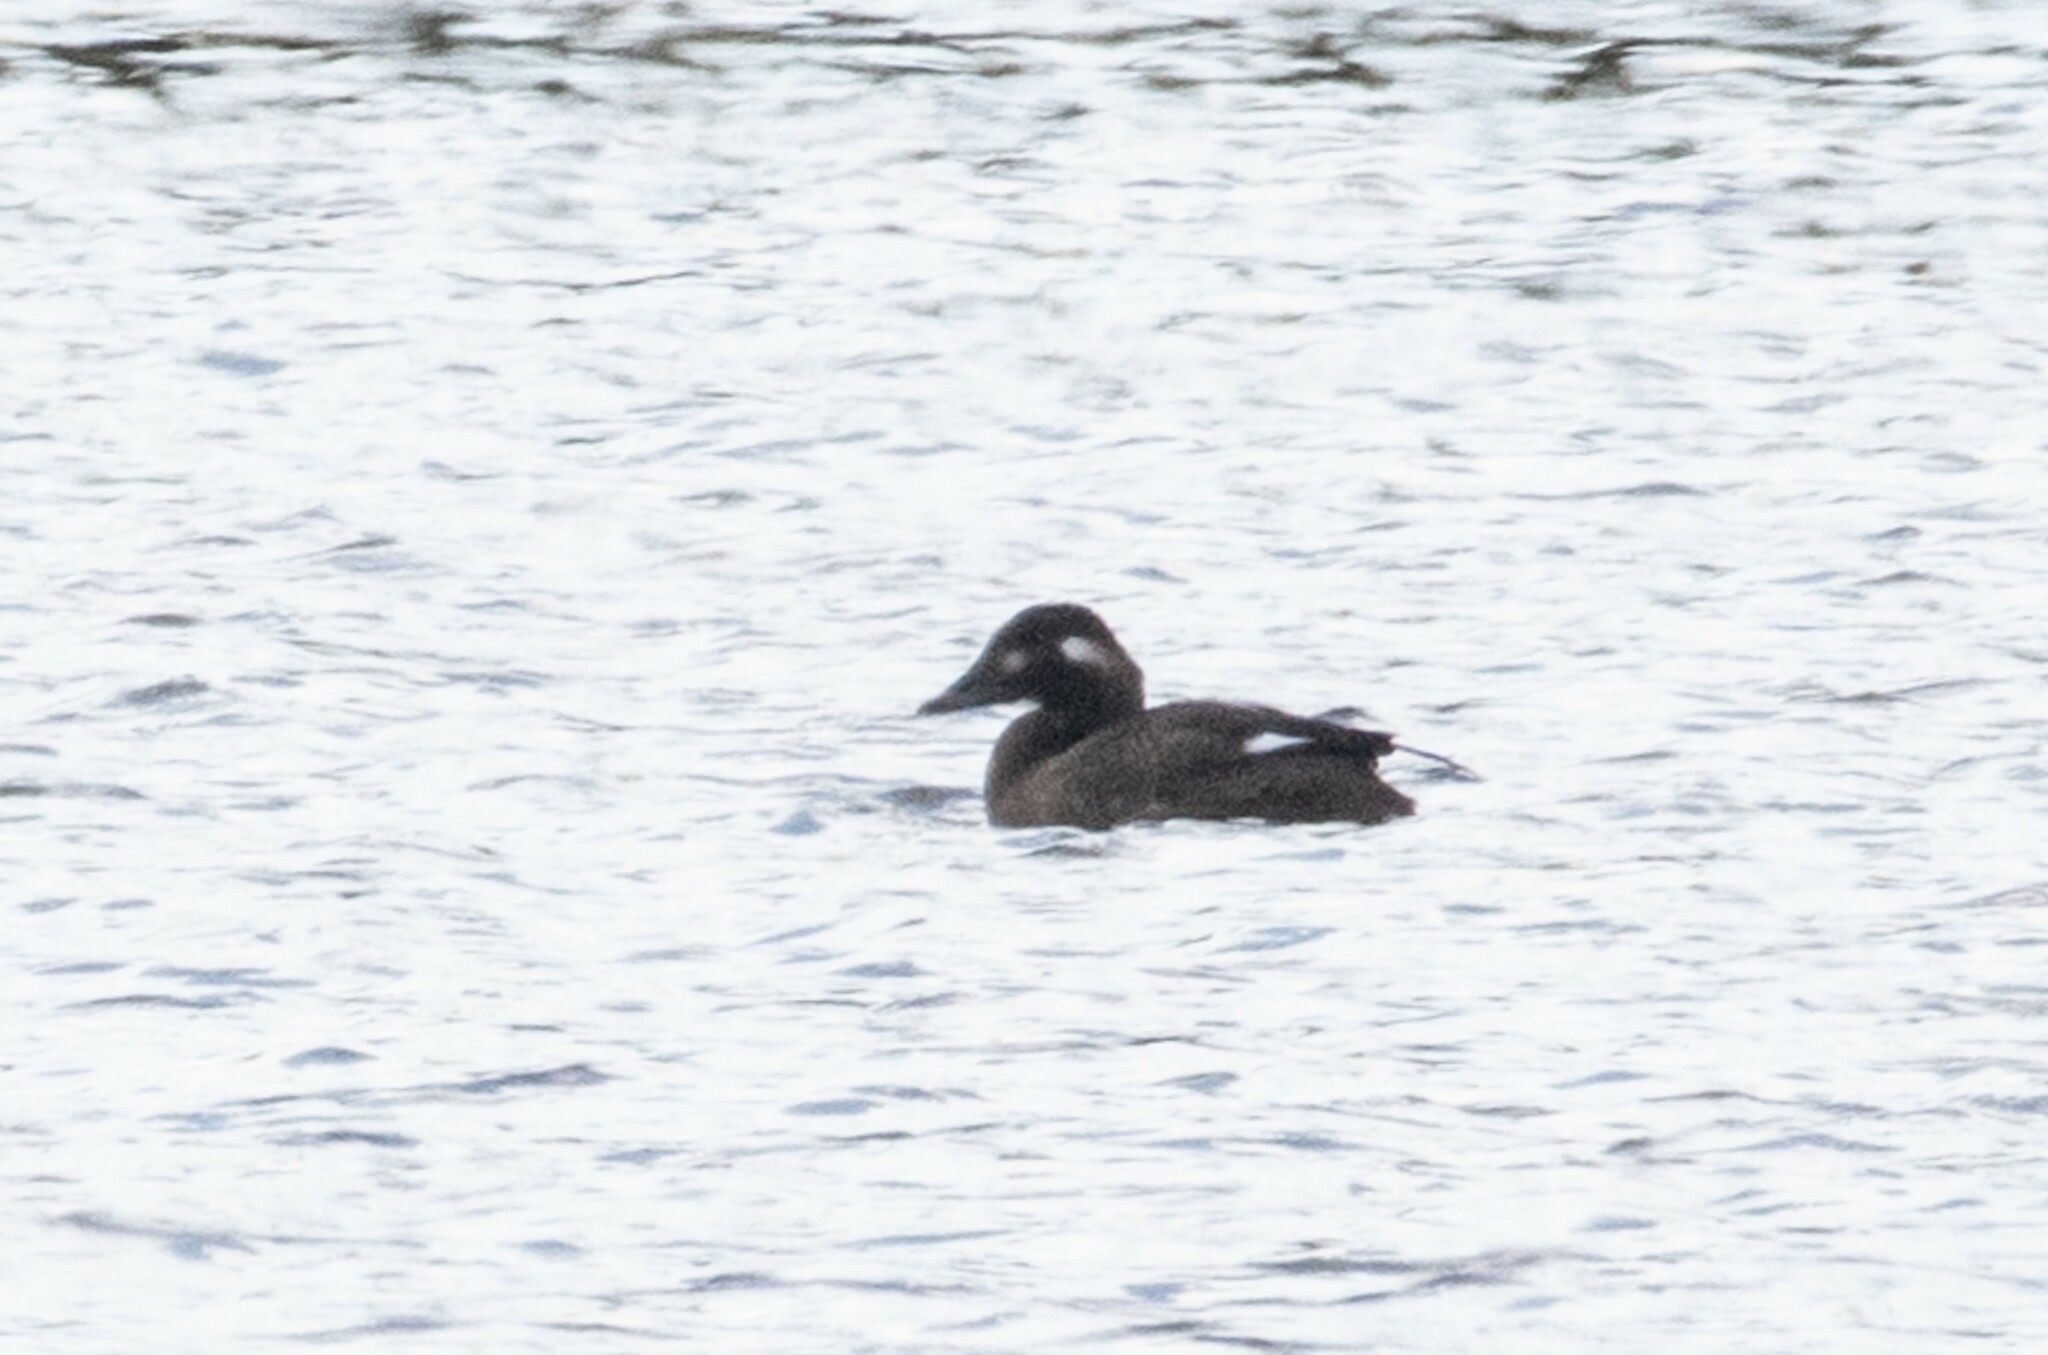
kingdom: Animalia
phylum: Chordata
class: Aves
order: Anseriformes
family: Anatidae
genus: Melanitta
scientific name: Melanitta deglandi
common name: White-winged scoter
